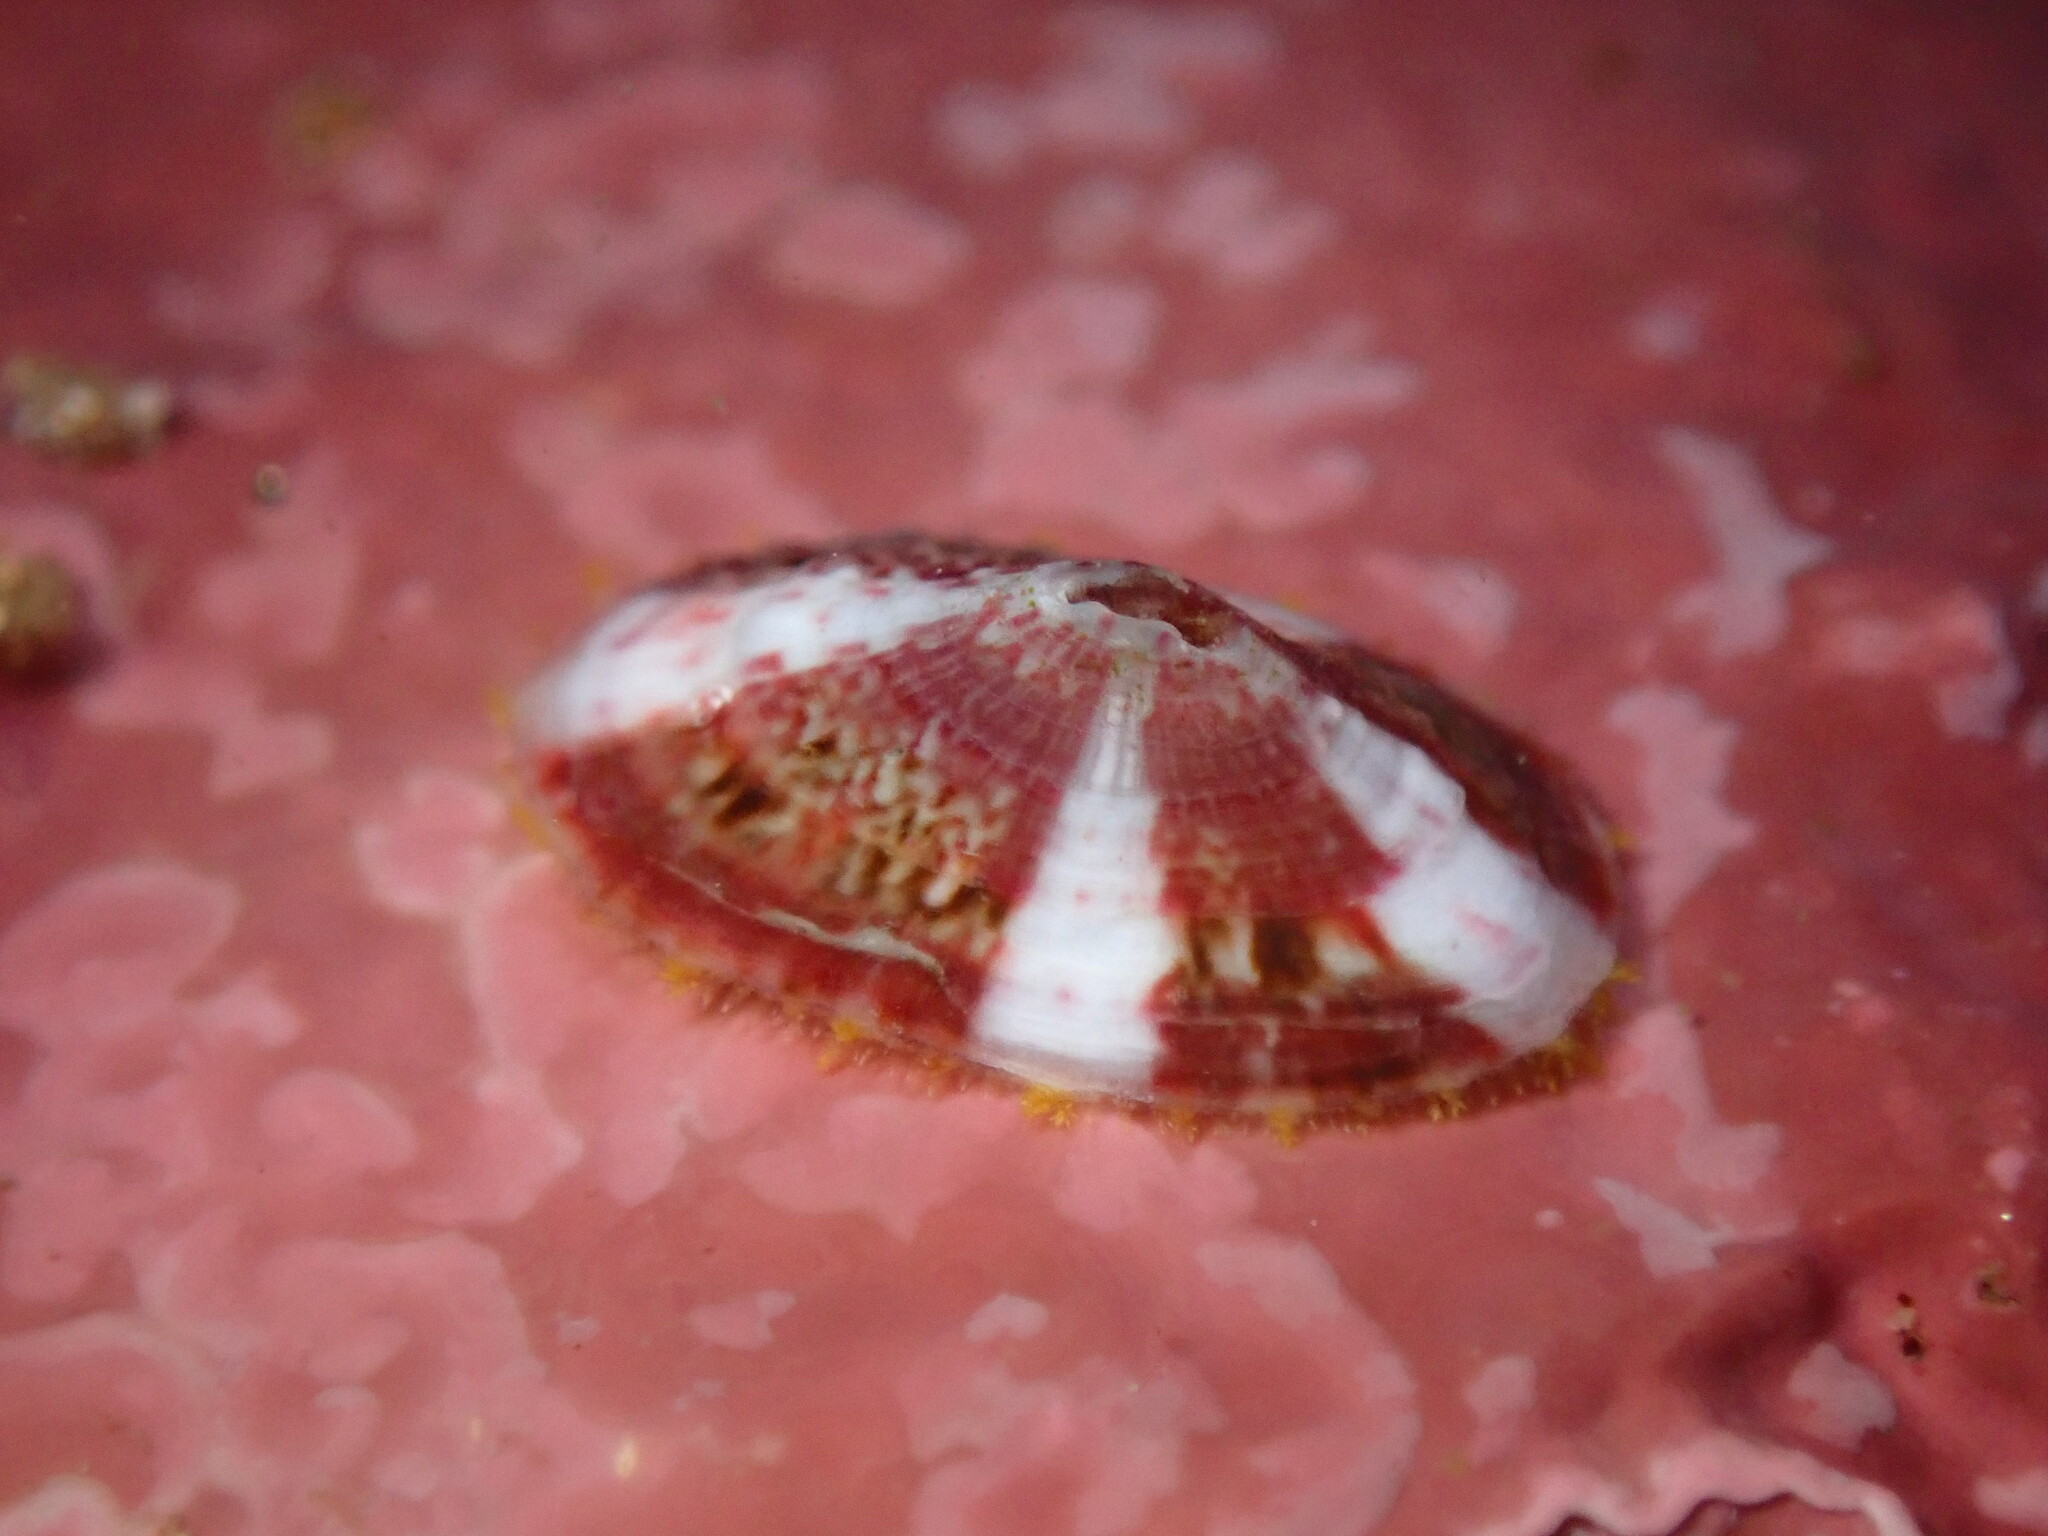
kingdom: Animalia
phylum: Mollusca
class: Gastropoda
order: Lepetellida
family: Fissurellidae
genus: Fissurella
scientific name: Fissurella volcano
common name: Volcano keyhole limpet
